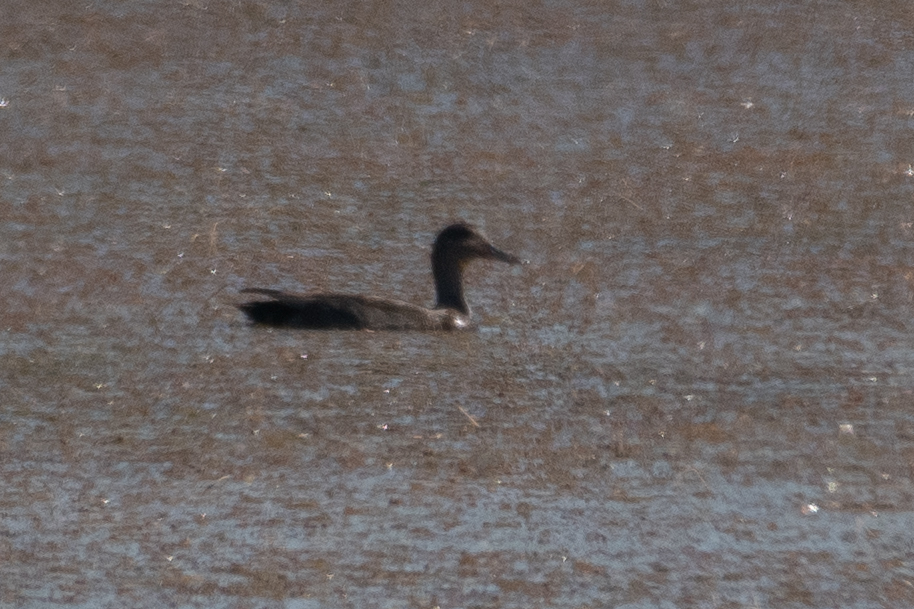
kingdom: Animalia
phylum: Chordata
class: Aves
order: Anseriformes
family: Anatidae
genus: Mareca
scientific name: Mareca strepera
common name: Gadwall
